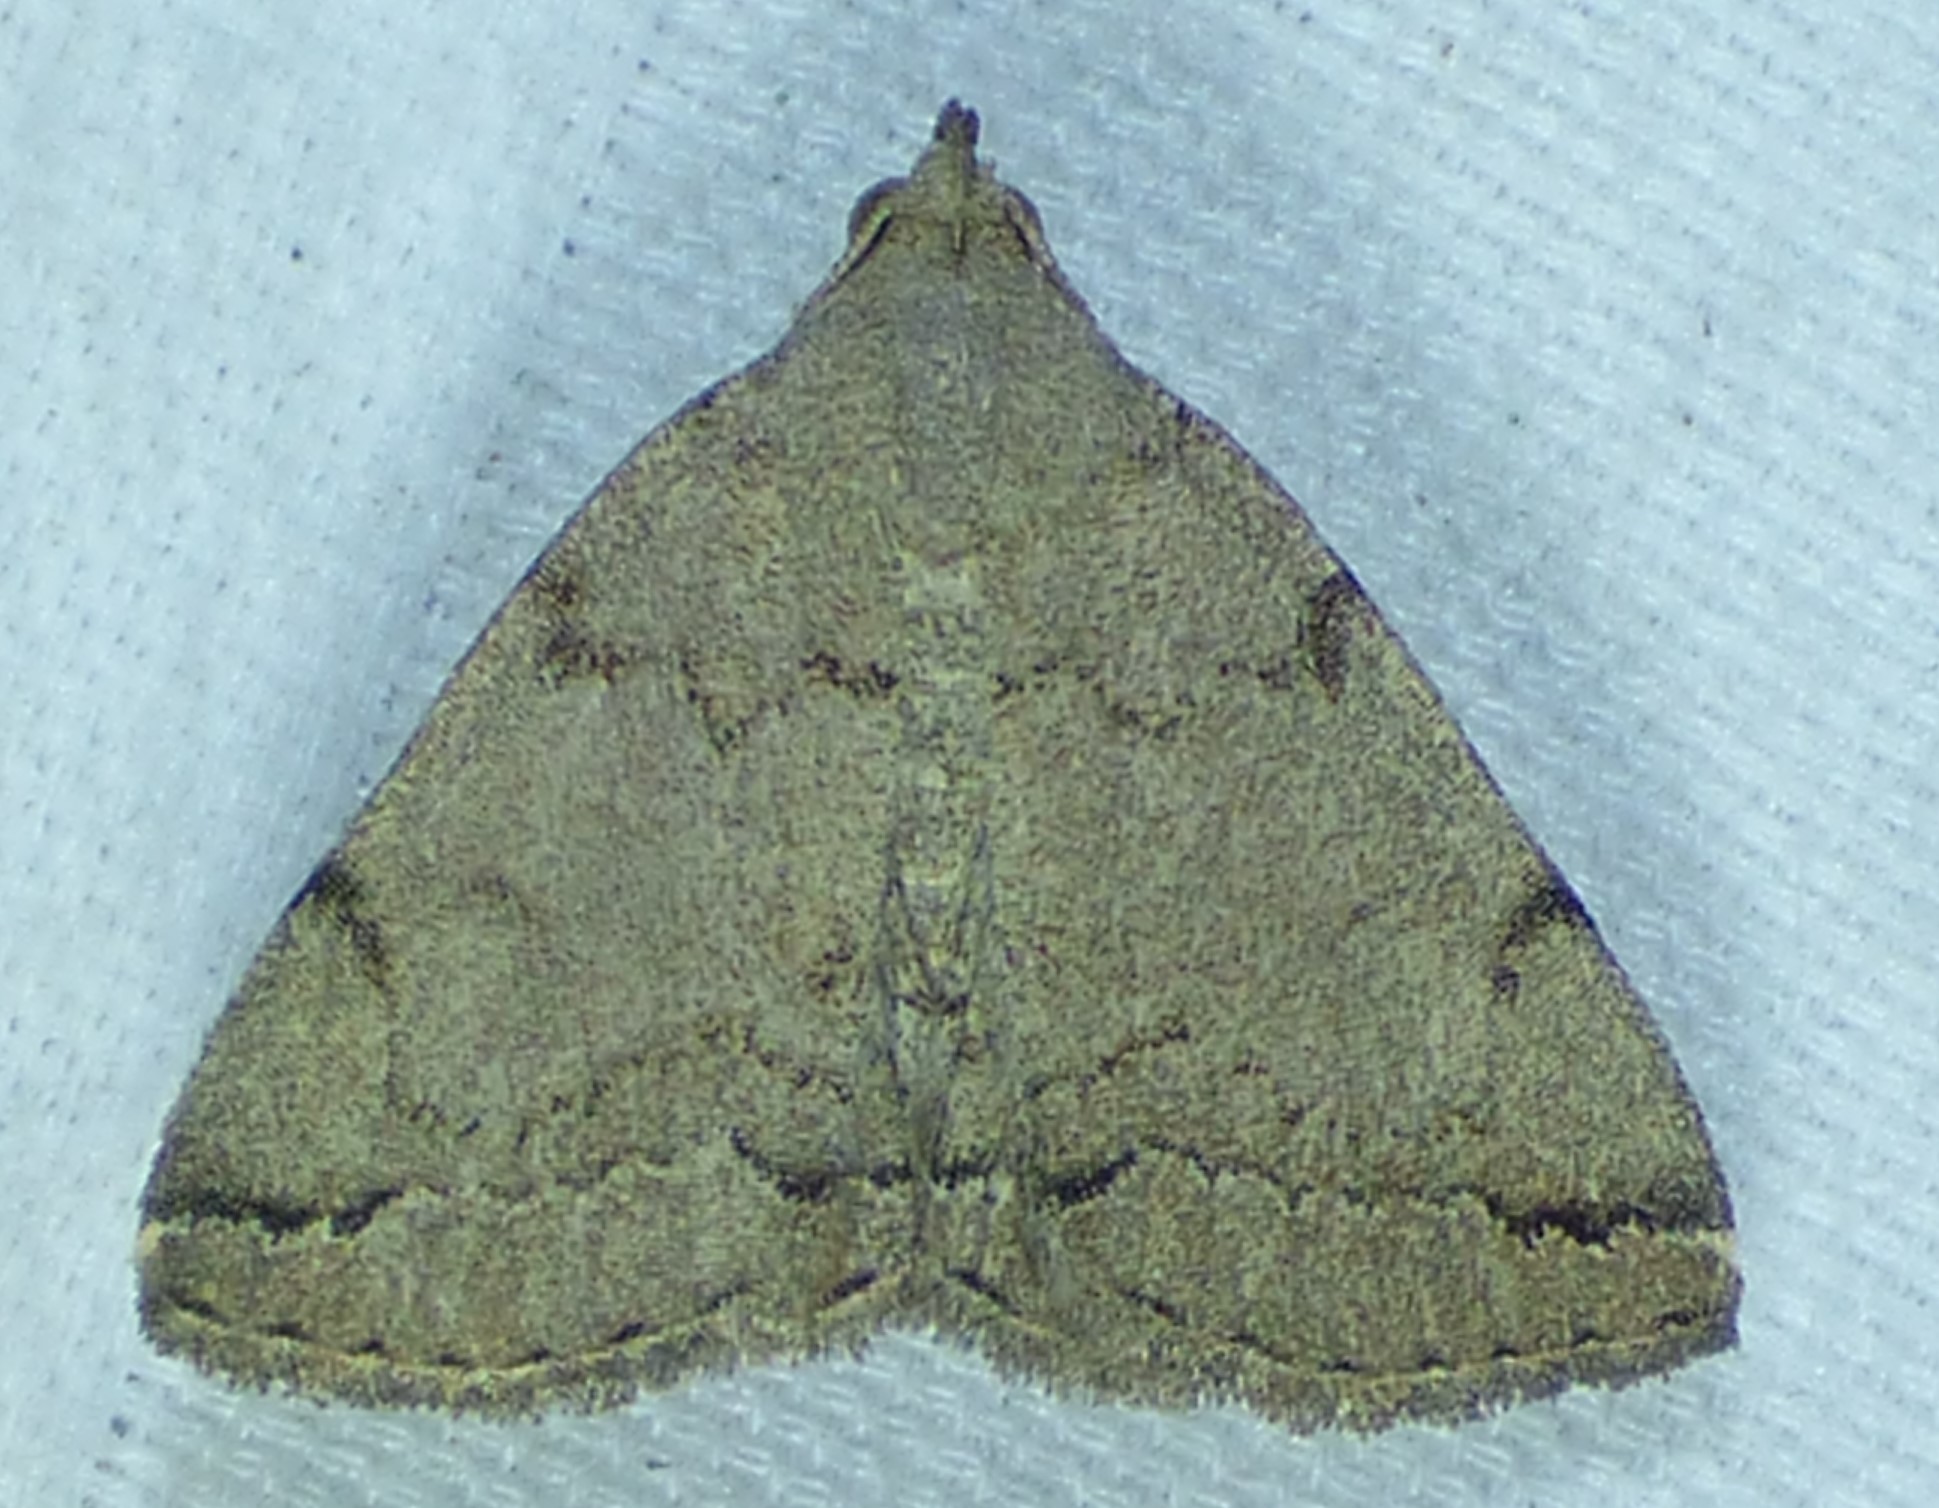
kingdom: Animalia
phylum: Arthropoda
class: Insecta
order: Lepidoptera
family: Erebidae
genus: Zanclognatha
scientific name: Zanclognatha theralis
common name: Flagged fan-foot
